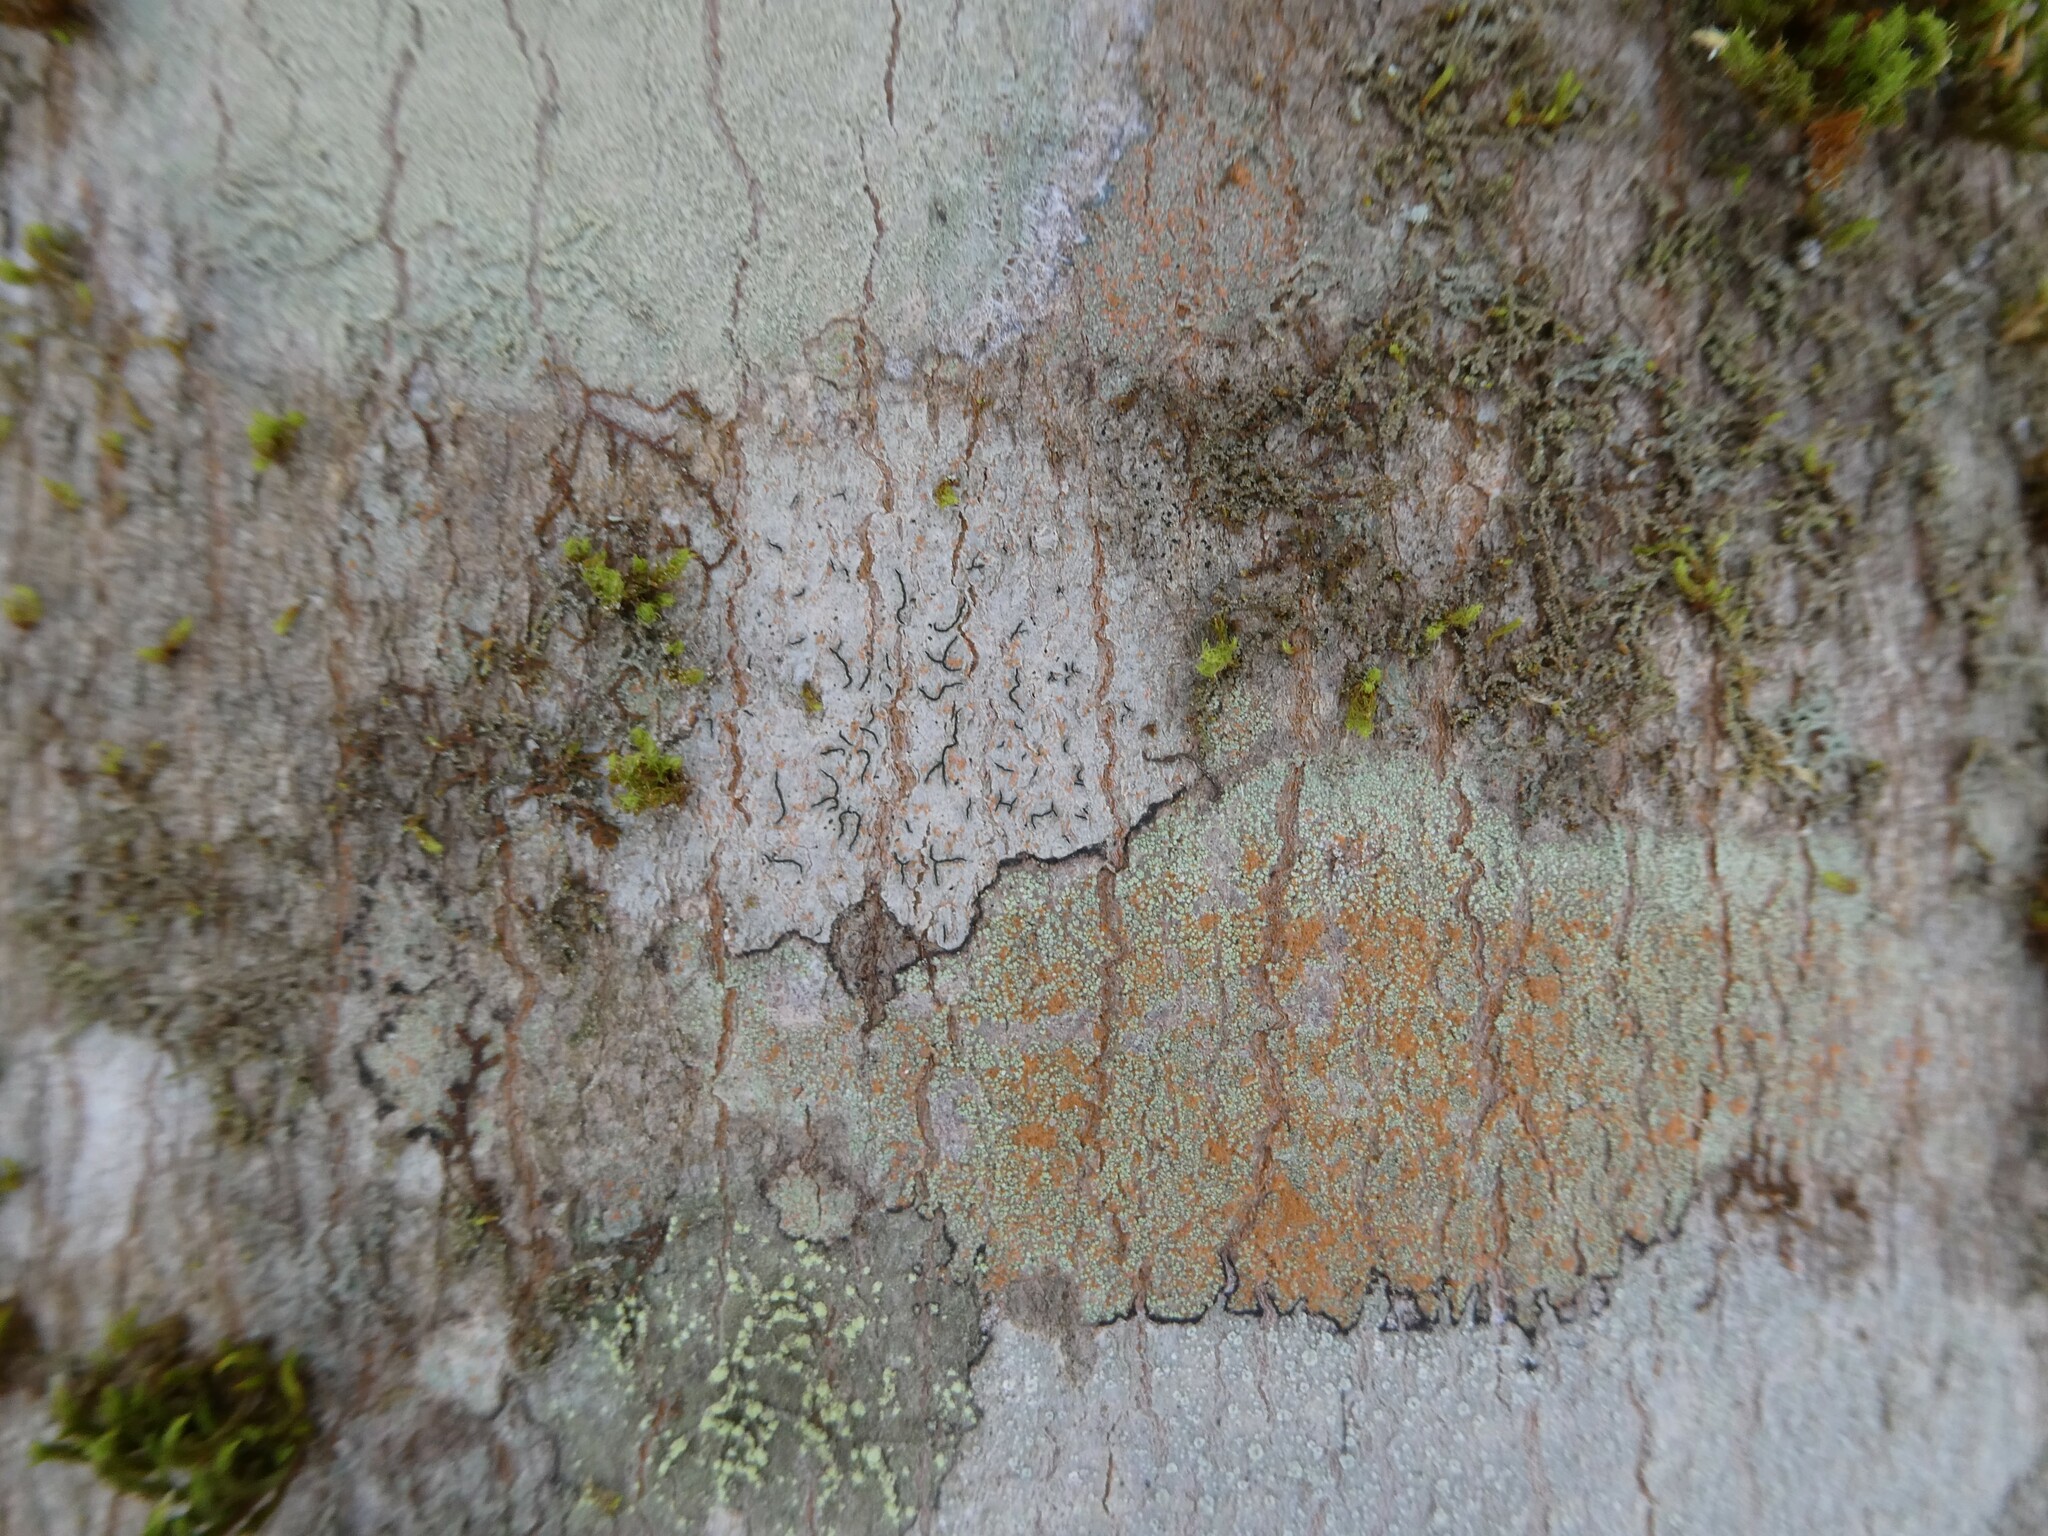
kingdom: Fungi
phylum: Ascomycota
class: Lecanoromycetes
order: Ostropales
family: Graphidaceae
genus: Graphis
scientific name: Graphis scripta
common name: Script lichen
